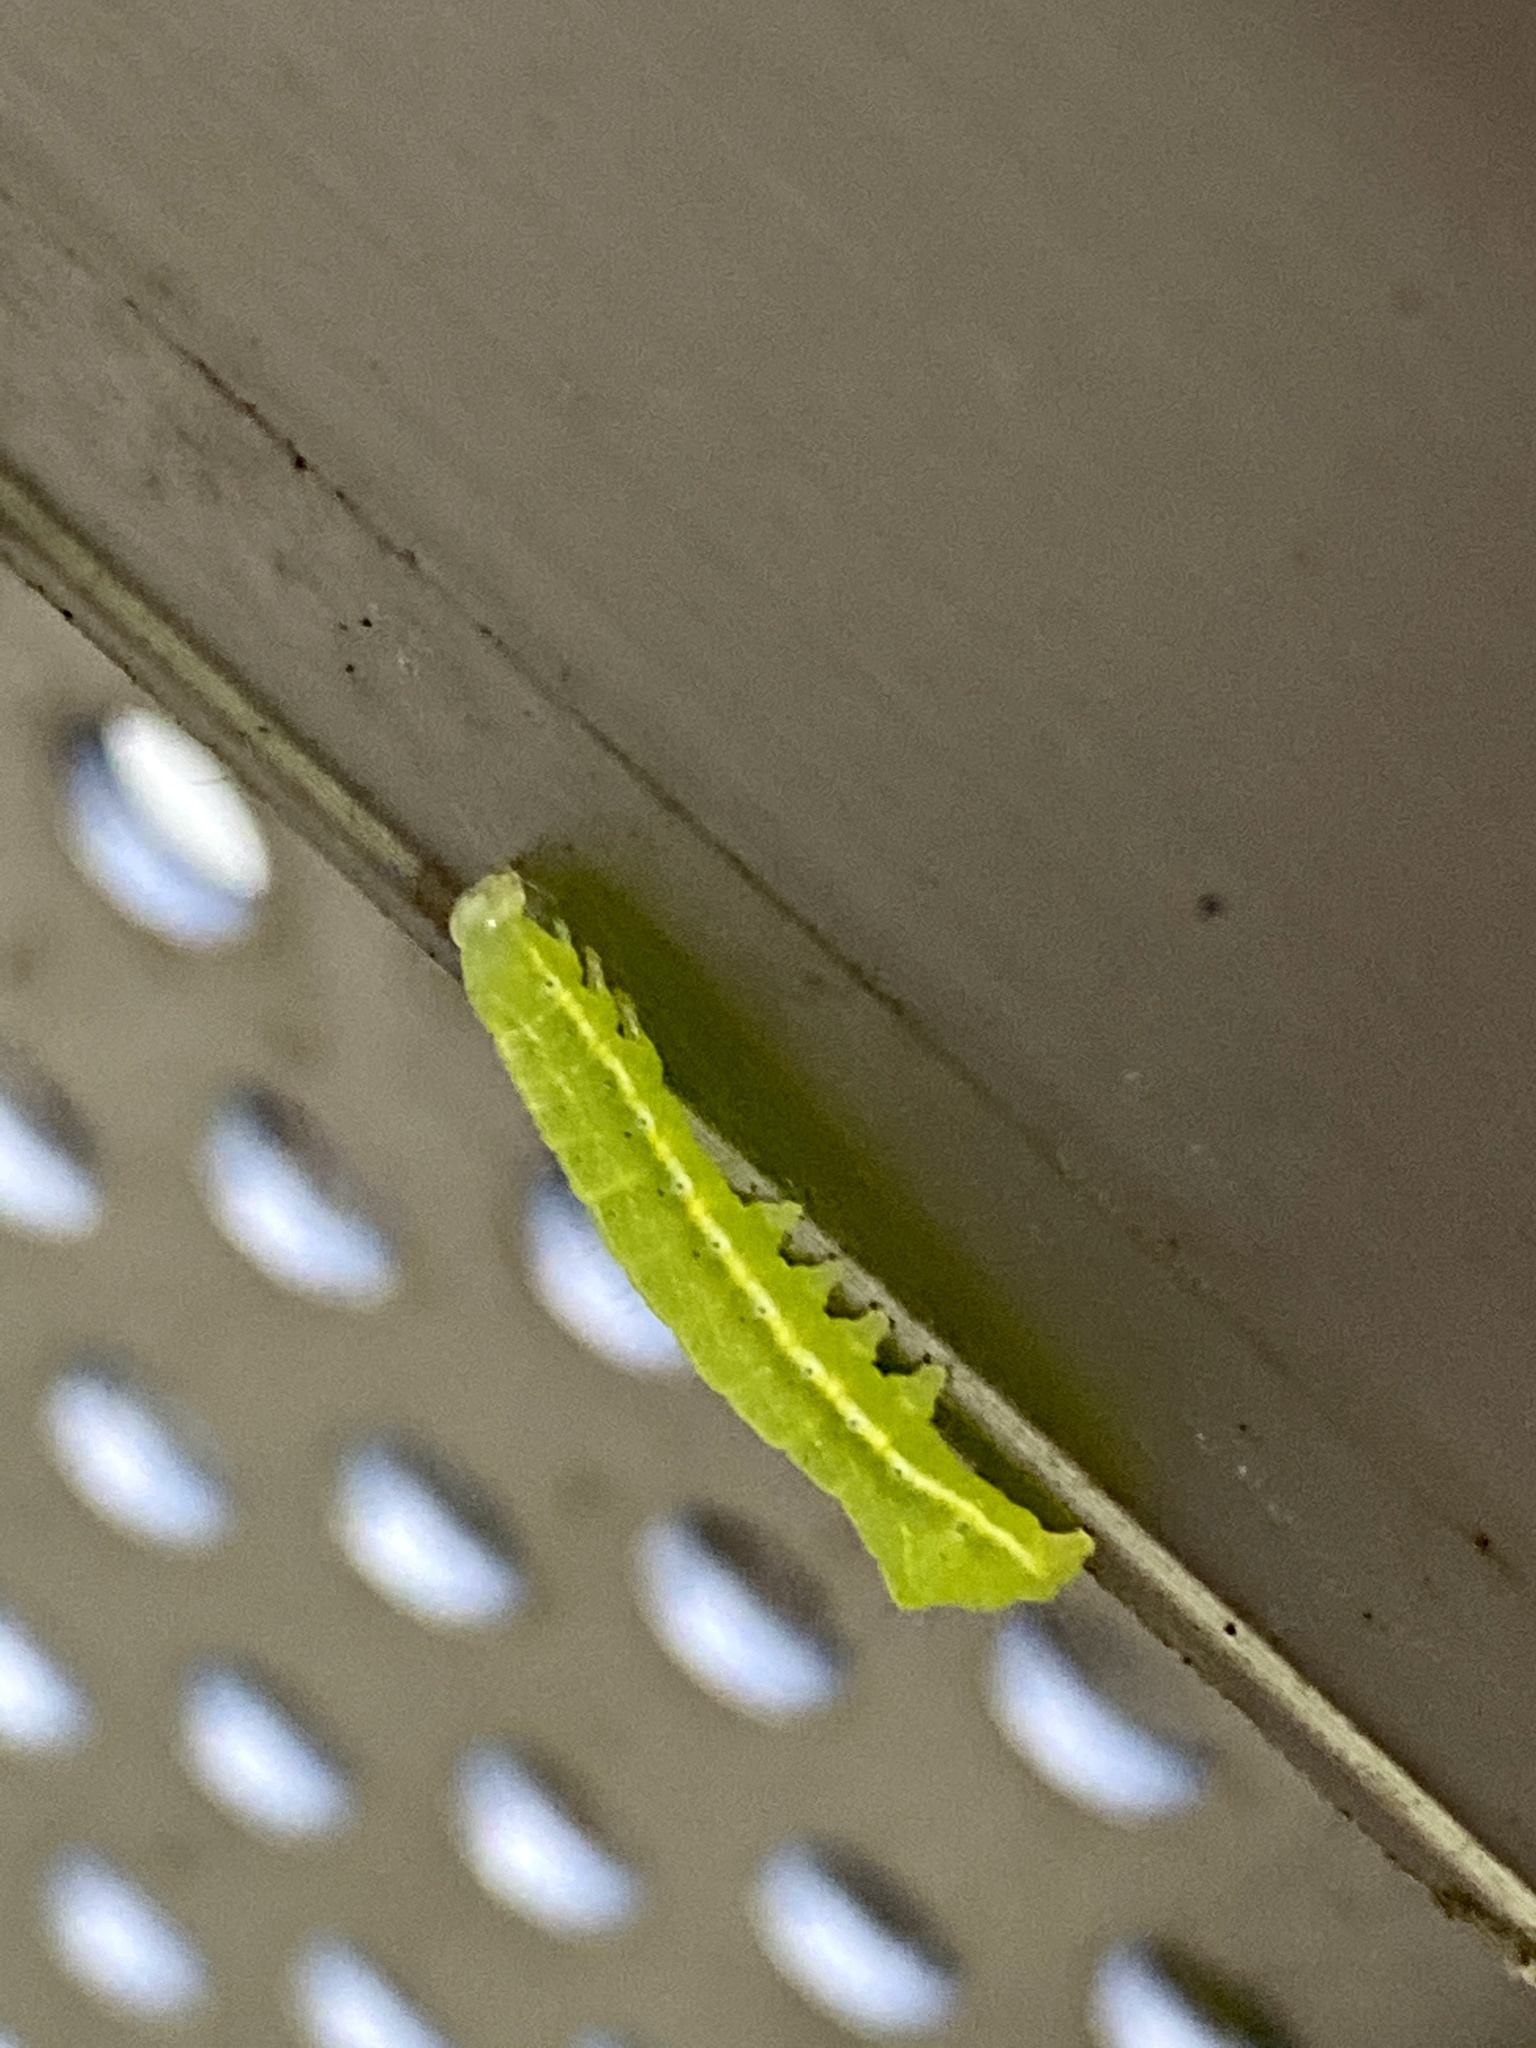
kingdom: Animalia
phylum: Arthropoda
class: Insecta
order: Lepidoptera
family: Noctuidae
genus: Amphipyra
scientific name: Amphipyra monolitha
